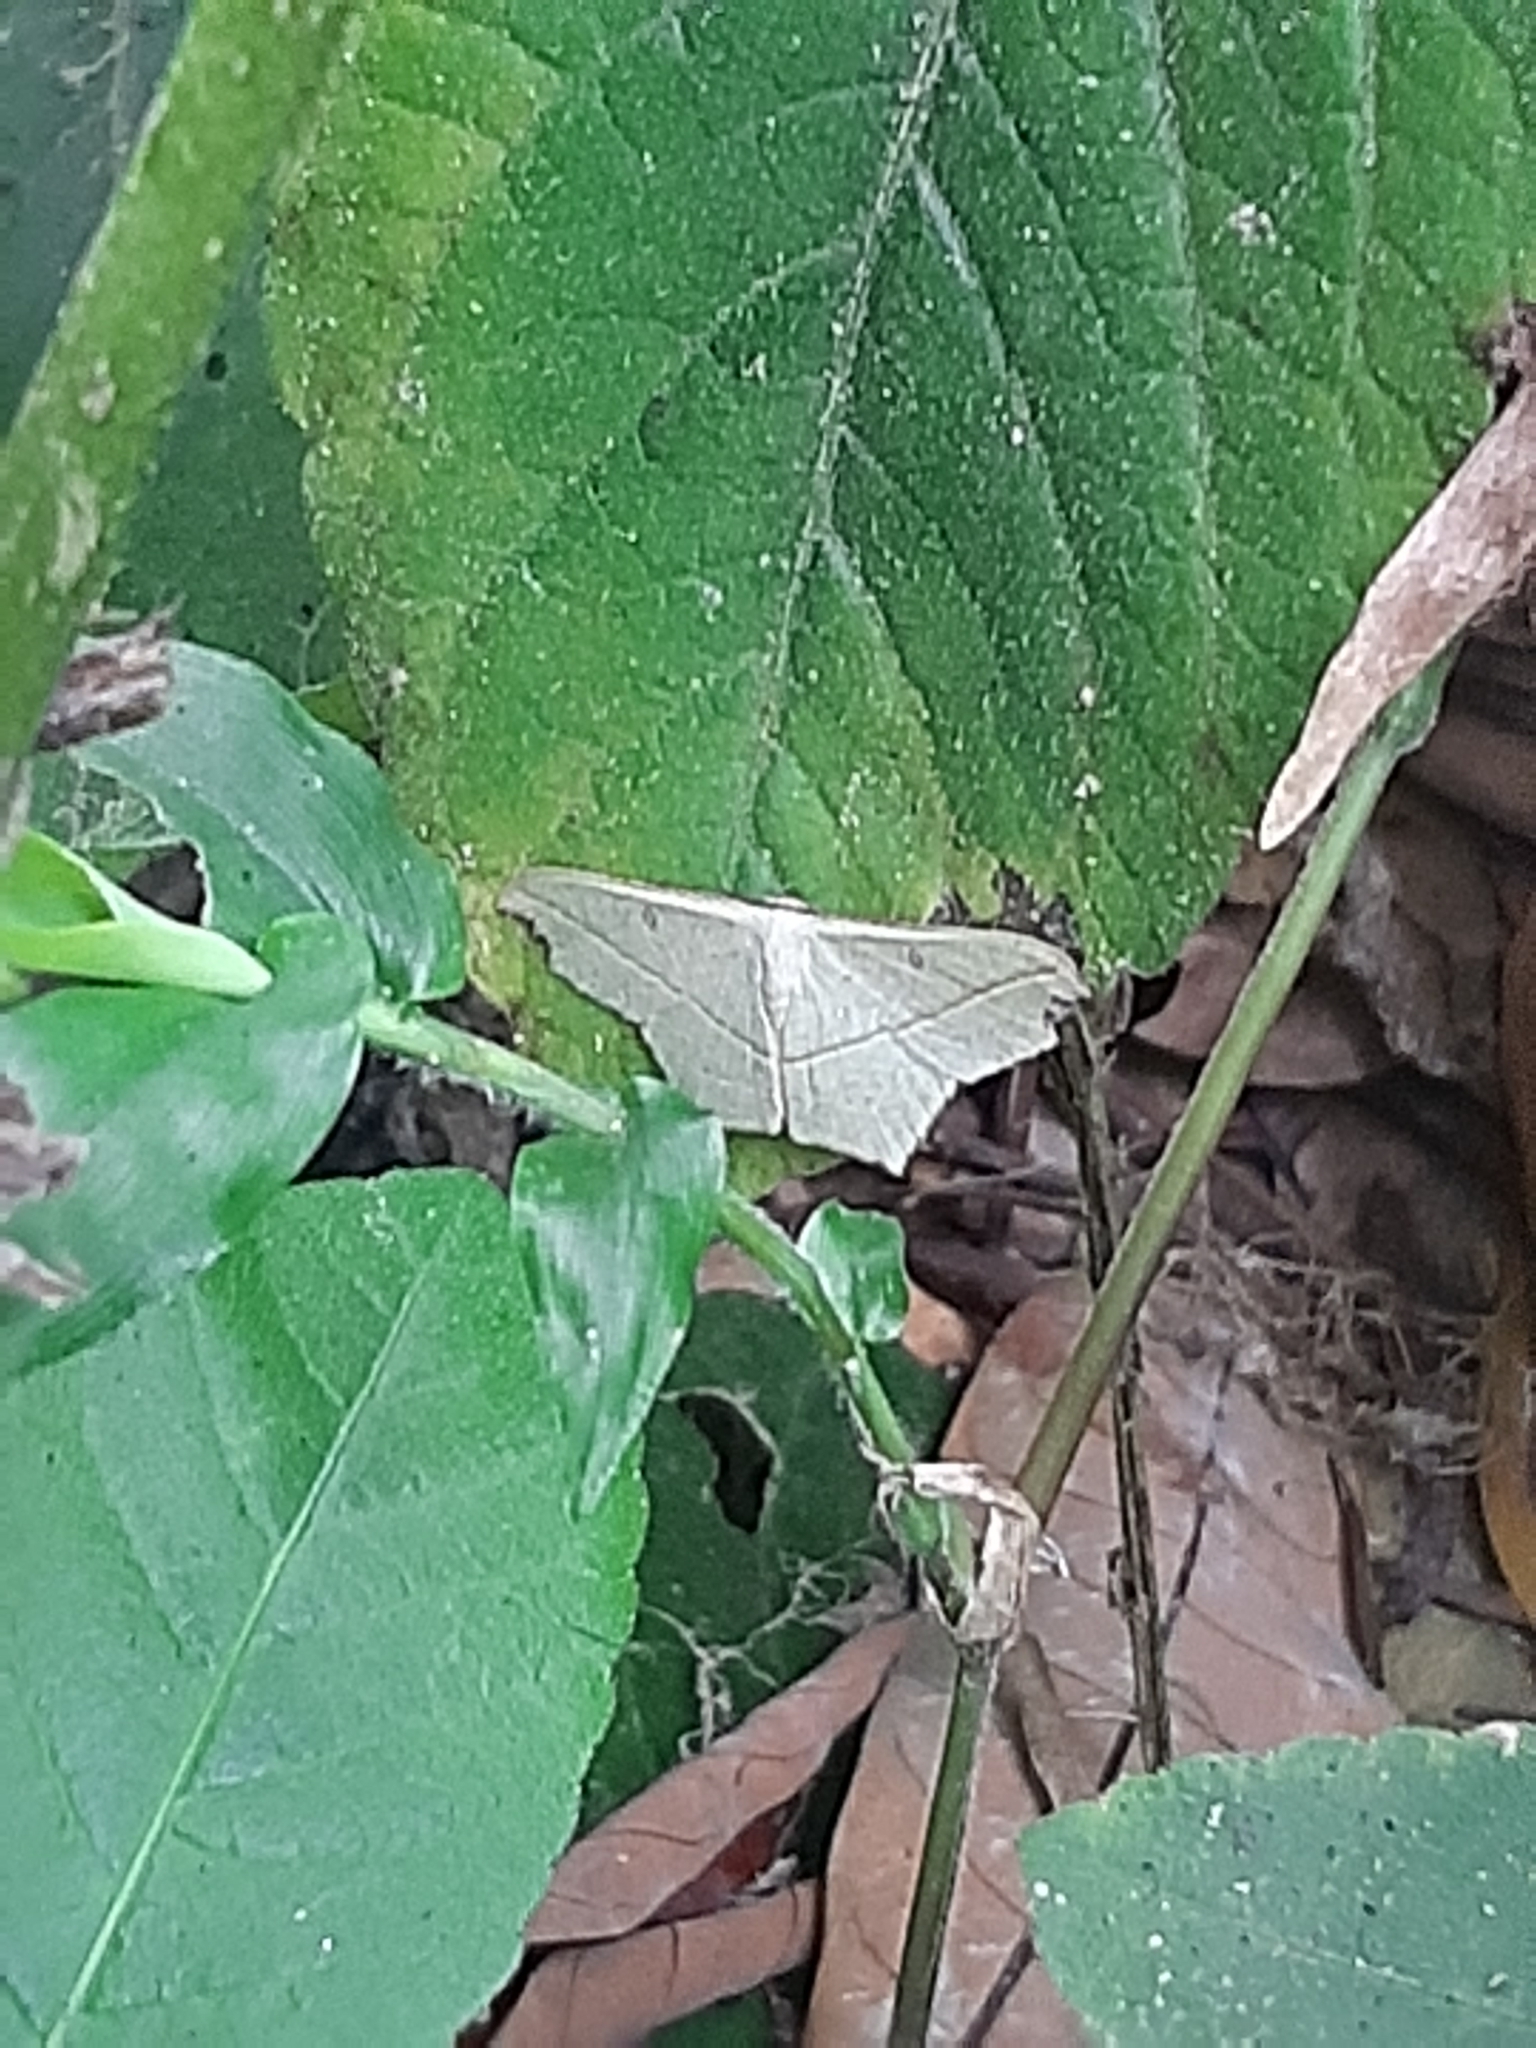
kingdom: Animalia
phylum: Arthropoda
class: Insecta
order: Lepidoptera
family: Geometridae
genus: Traminda
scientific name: Traminda aventiaria
